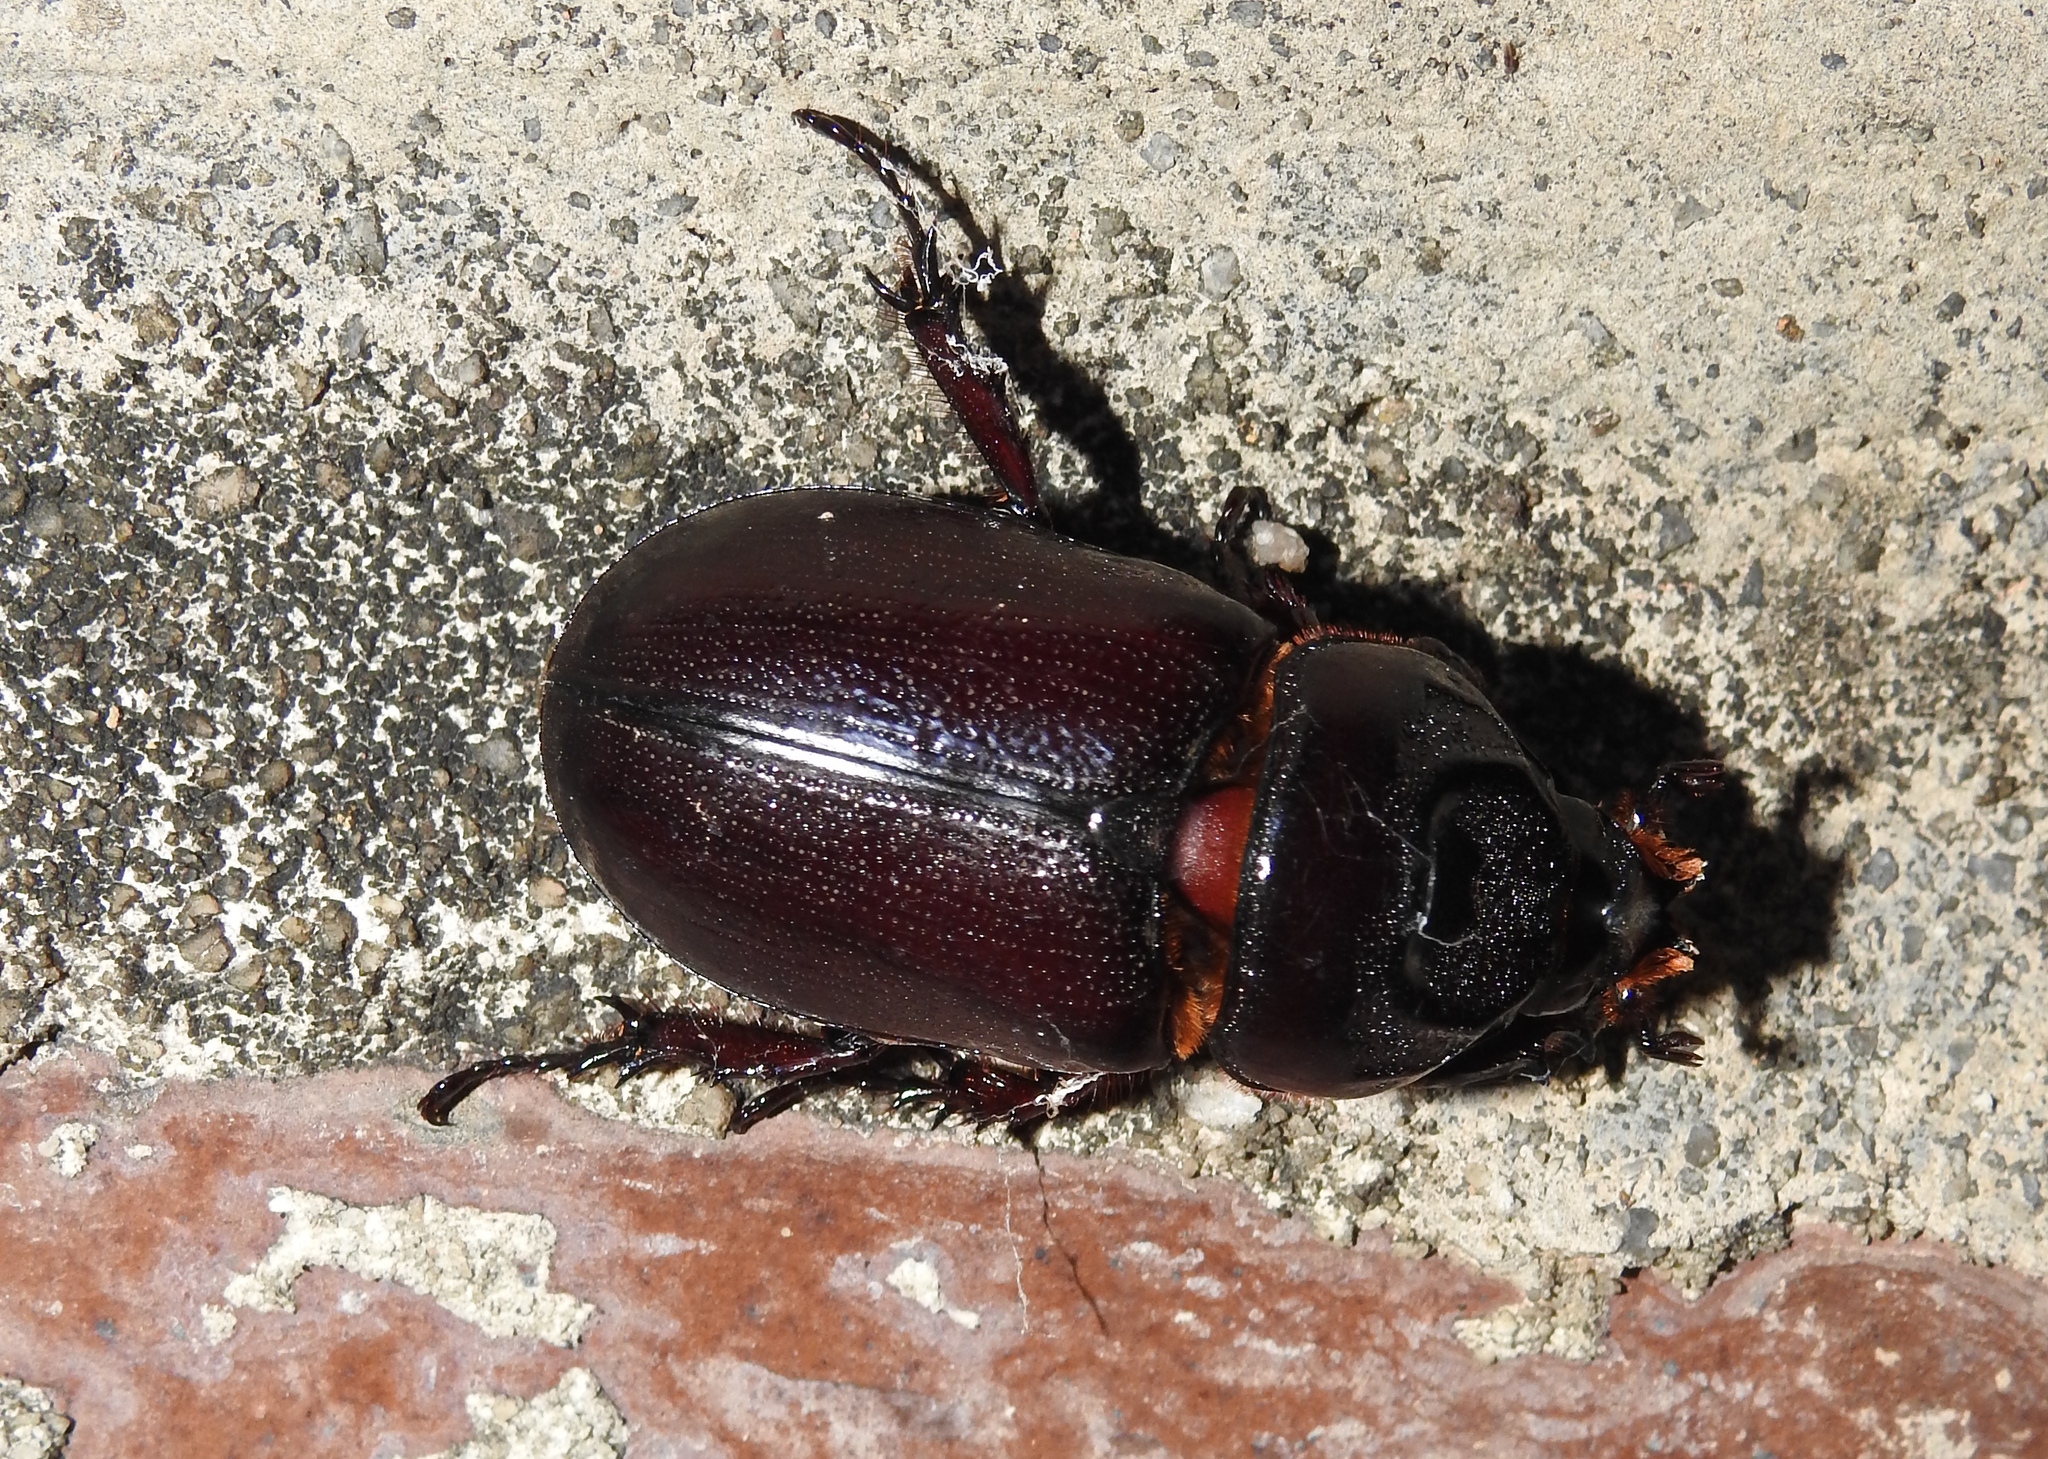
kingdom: Animalia
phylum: Arthropoda
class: Insecta
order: Coleoptera
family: Scarabaeidae
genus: Oryctes
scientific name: Oryctes rhinoceros
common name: Coconut rhinoceros beetle
